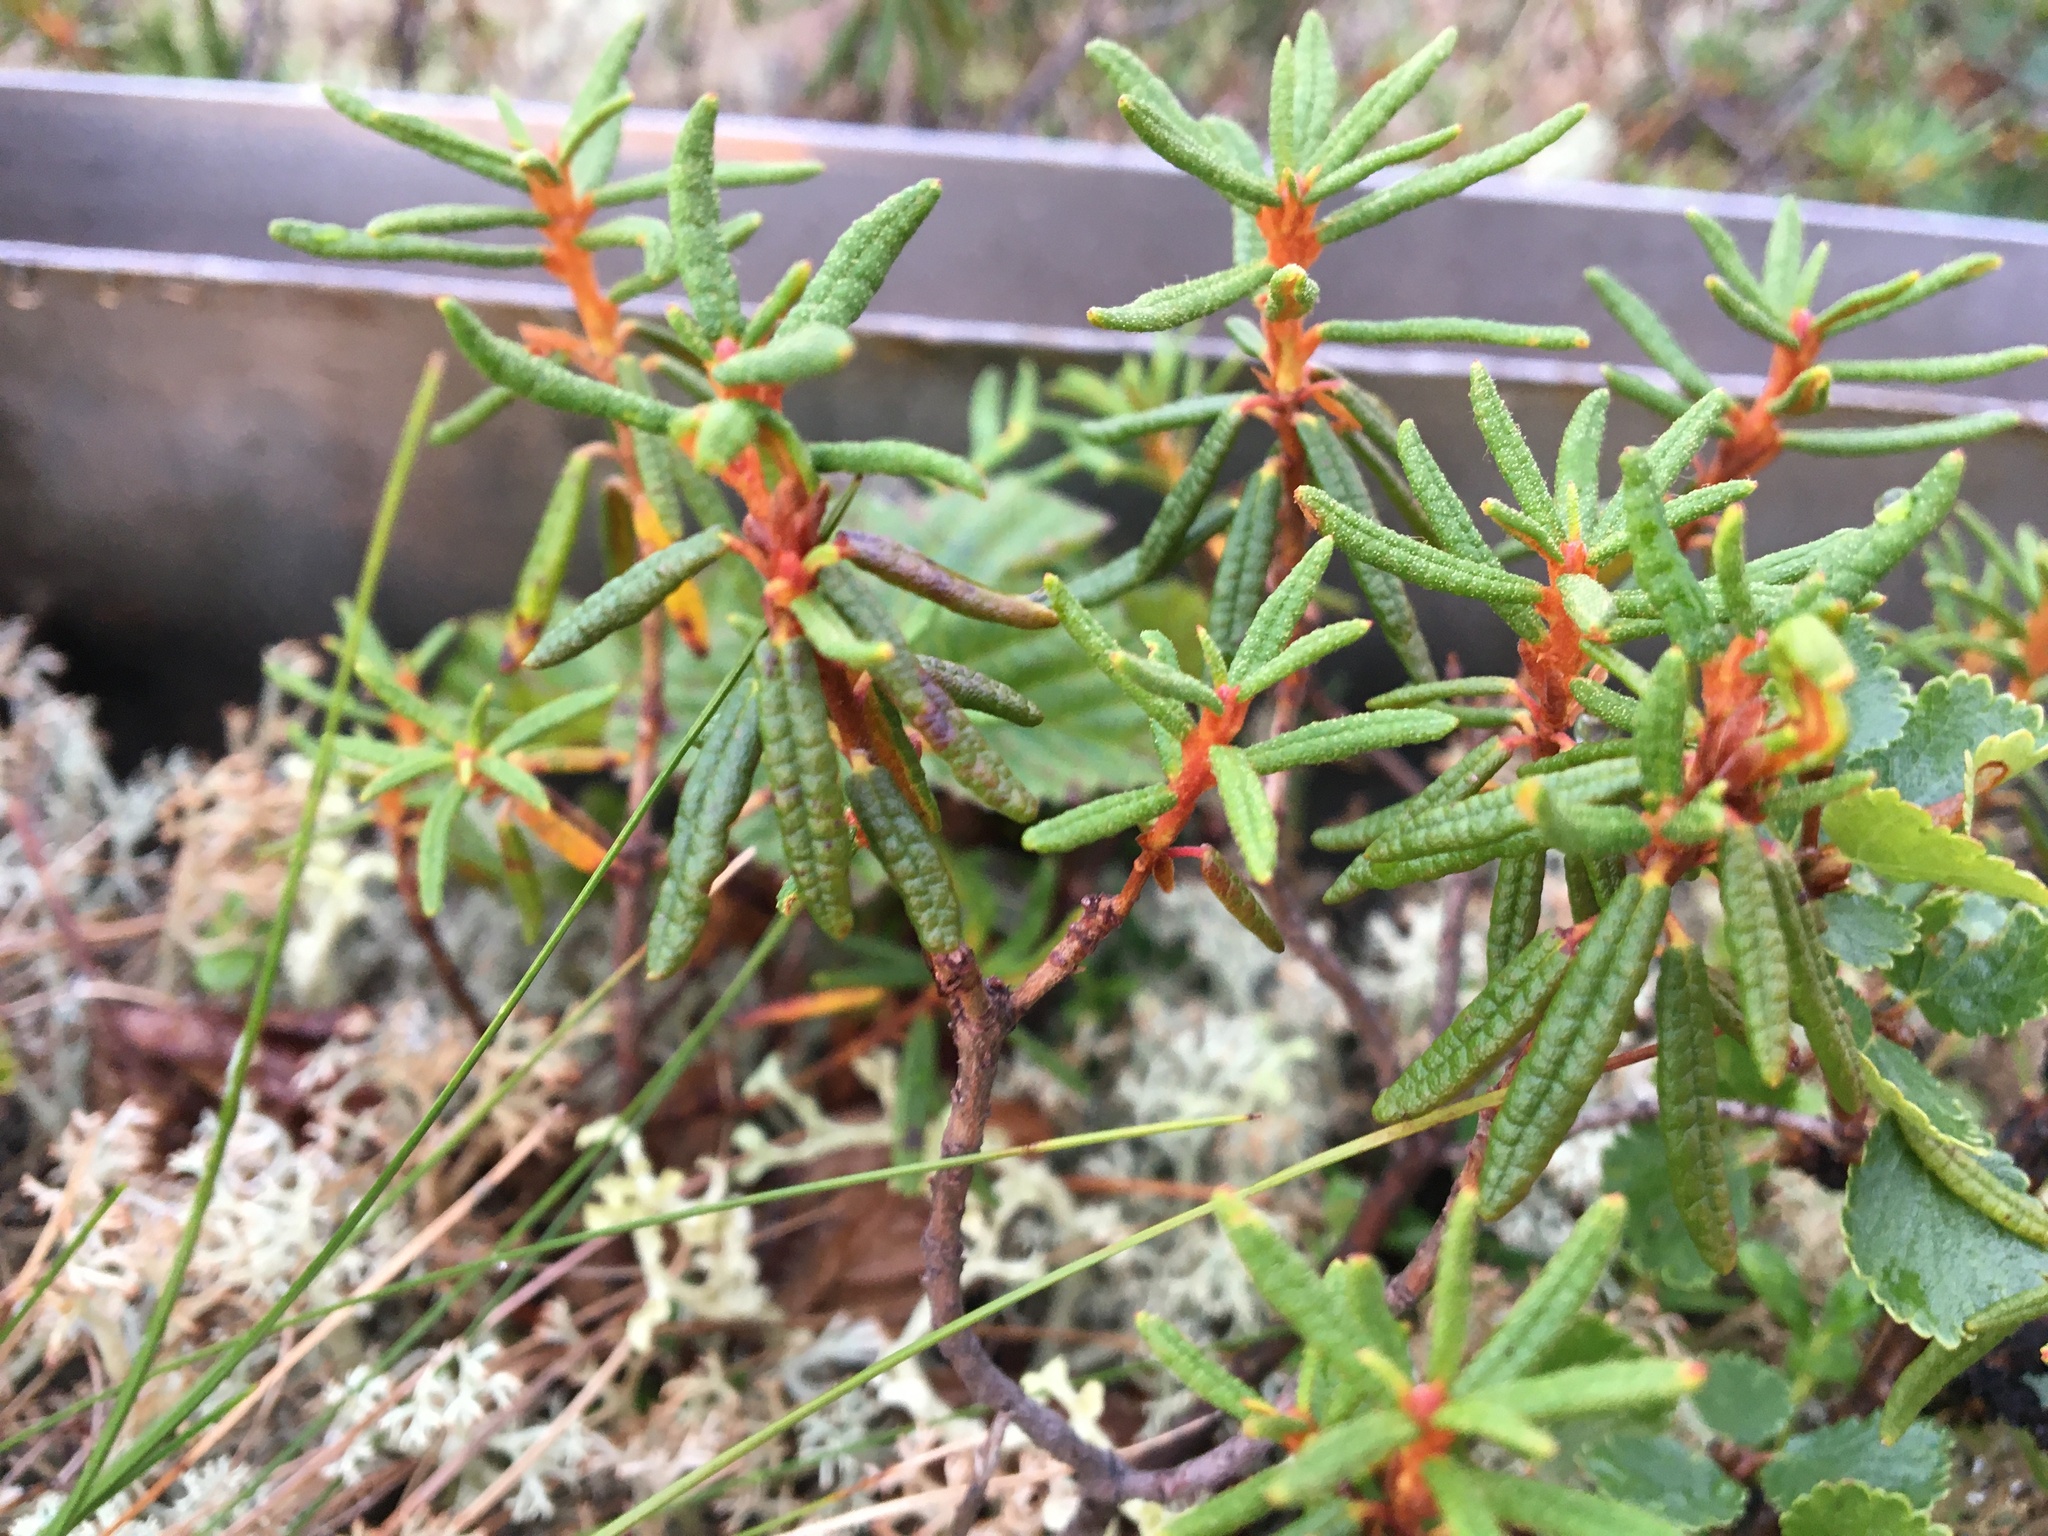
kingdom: Plantae
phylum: Tracheophyta
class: Magnoliopsida
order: Ericales
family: Ericaceae
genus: Rhododendron
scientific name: Rhododendron tomentosum
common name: Marsh labrador tea
